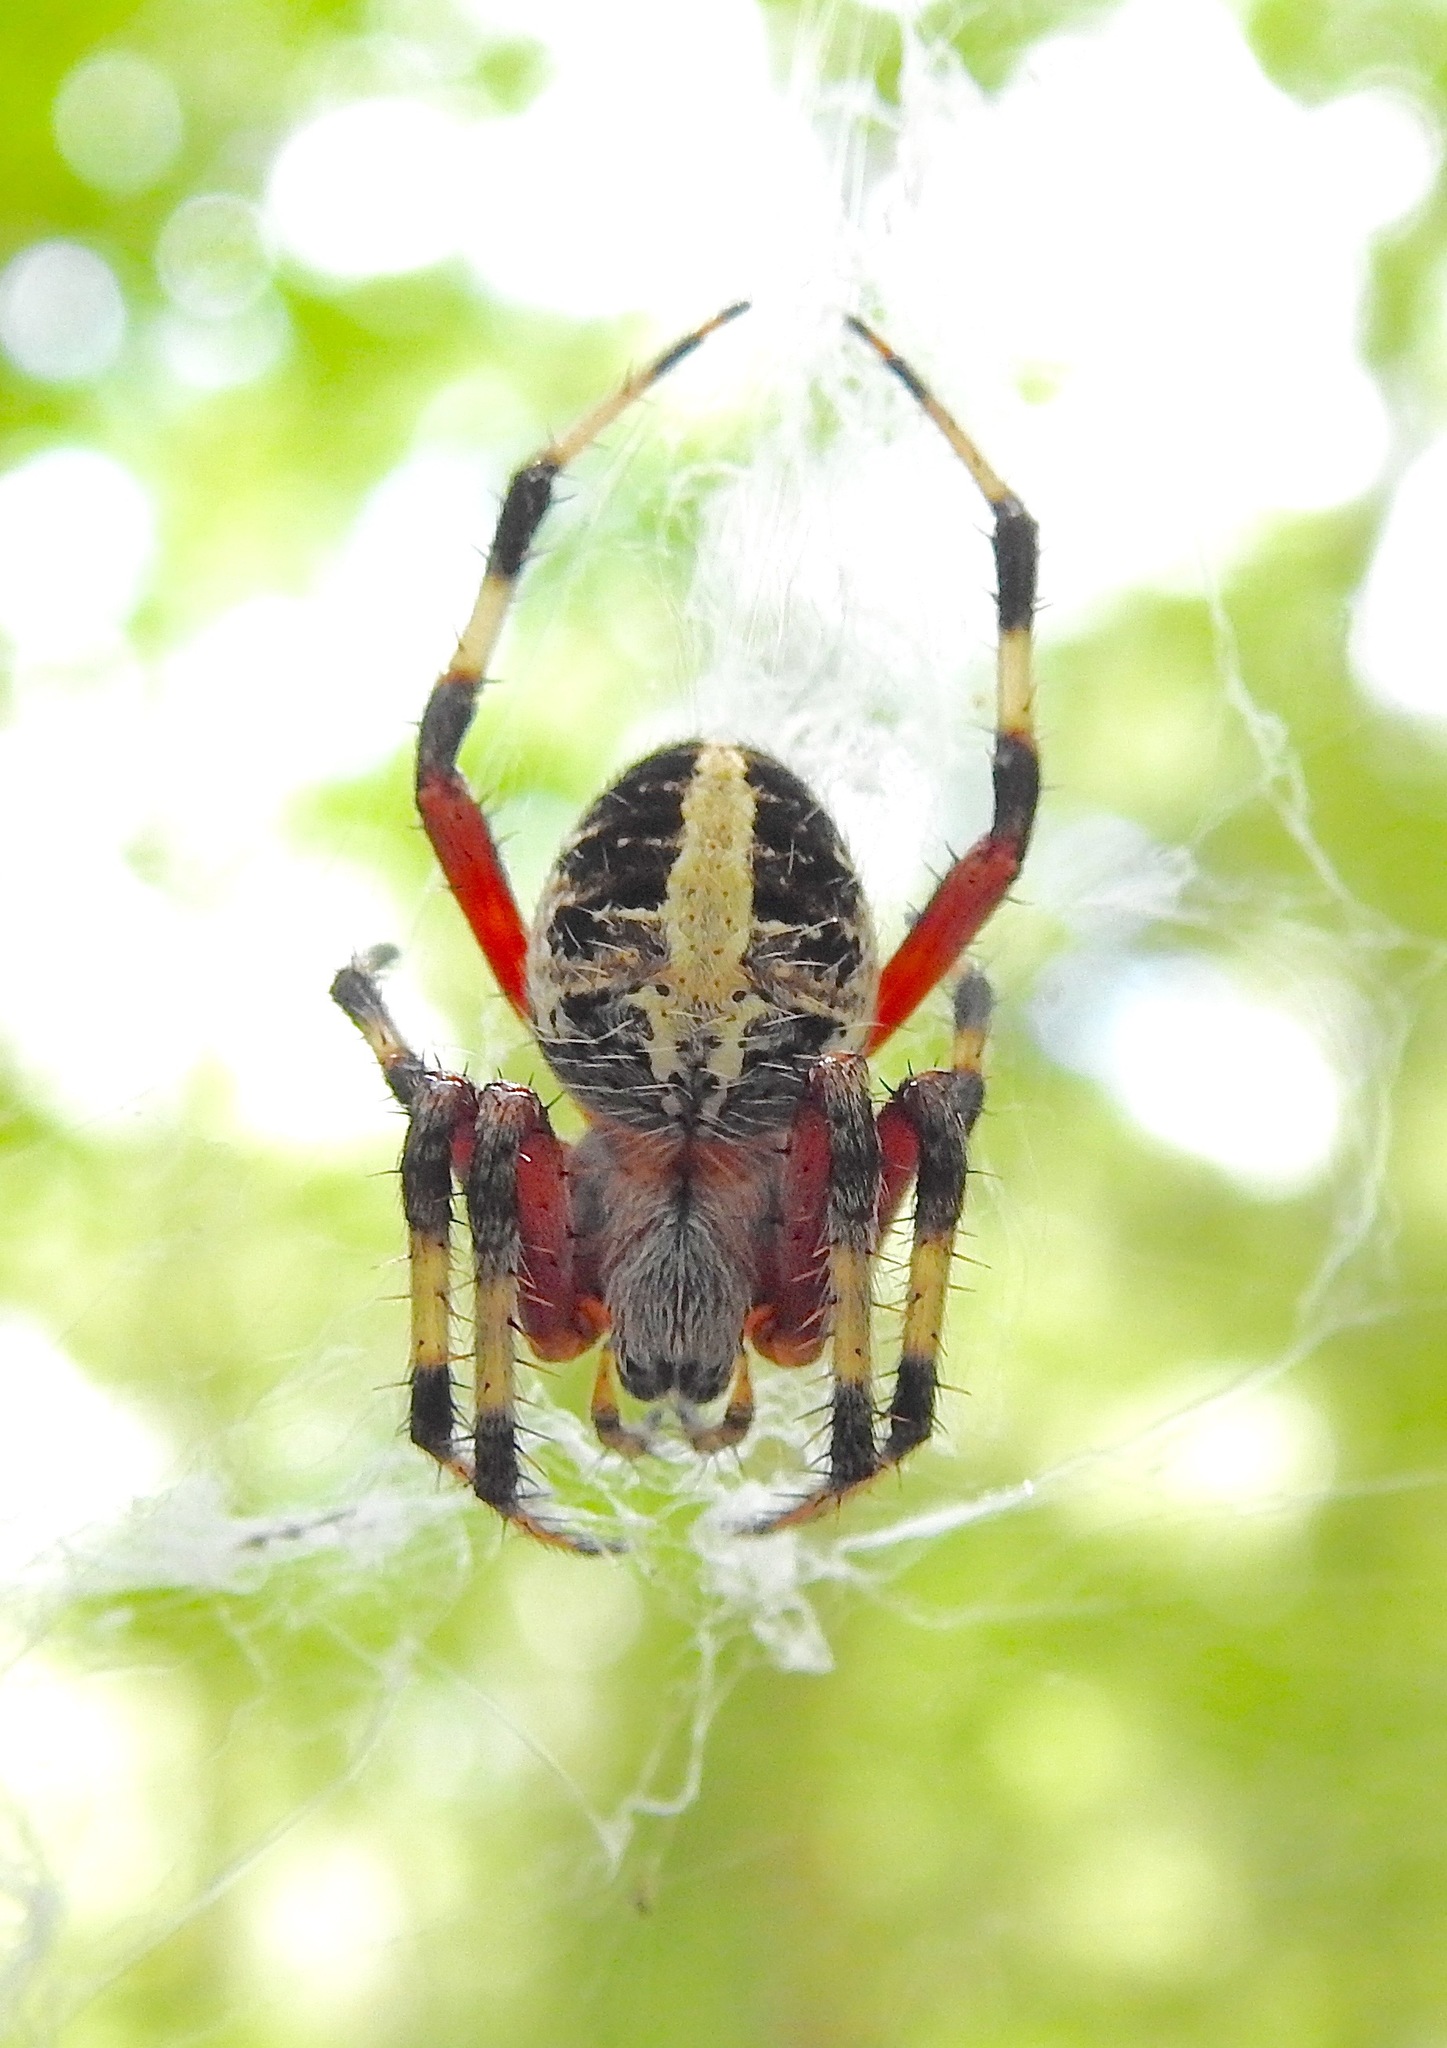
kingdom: Animalia
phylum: Arthropoda
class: Arachnida
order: Araneae
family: Araneidae
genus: Neoscona
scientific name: Neoscona domiciliorum
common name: Red-femured spotted orbweaver
